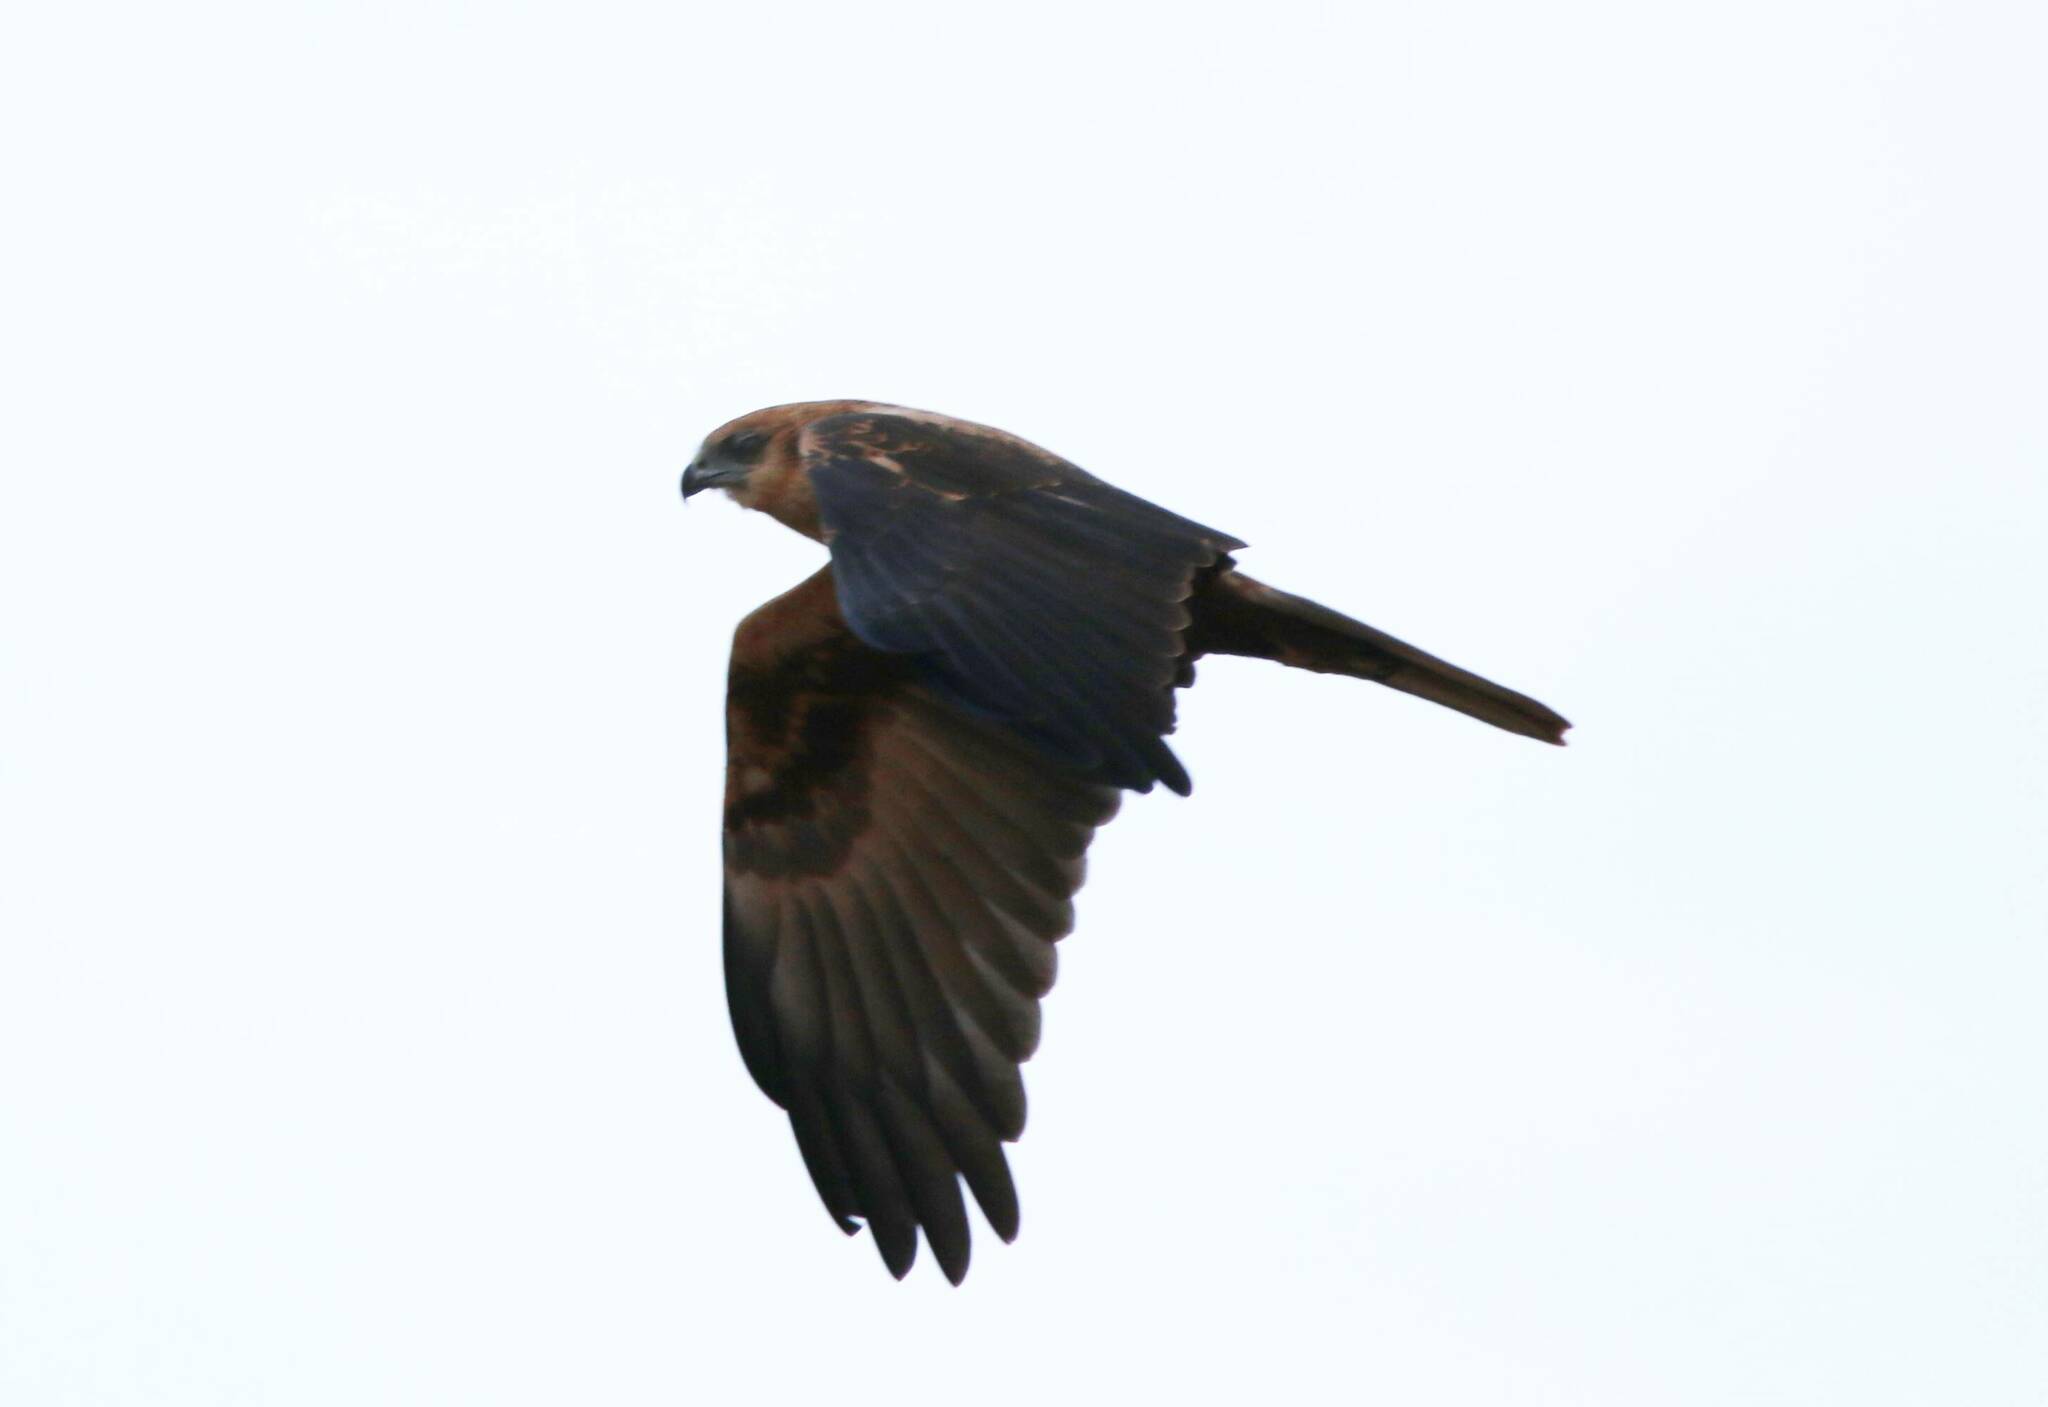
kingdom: Animalia
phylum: Chordata
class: Aves
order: Accipitriformes
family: Accipitridae
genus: Circus
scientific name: Circus aeruginosus
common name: Western marsh harrier
